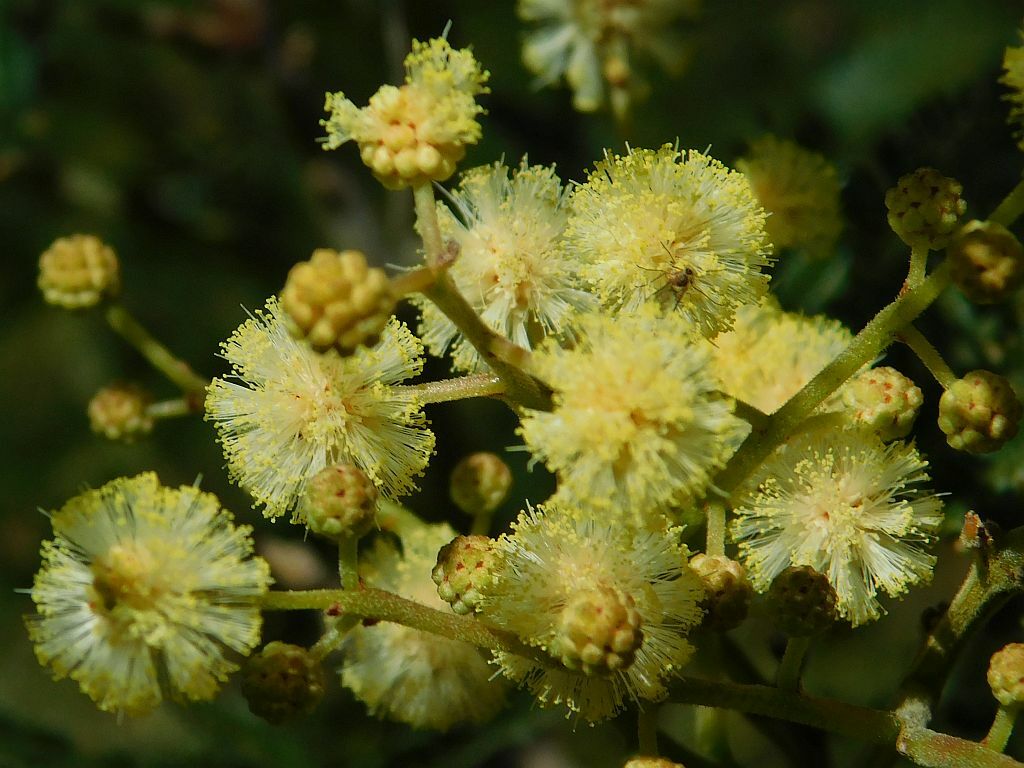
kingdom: Plantae
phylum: Tracheophyta
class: Magnoliopsida
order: Fabales
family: Fabaceae
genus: Acacia
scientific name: Acacia mearnsii
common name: Black wattle
